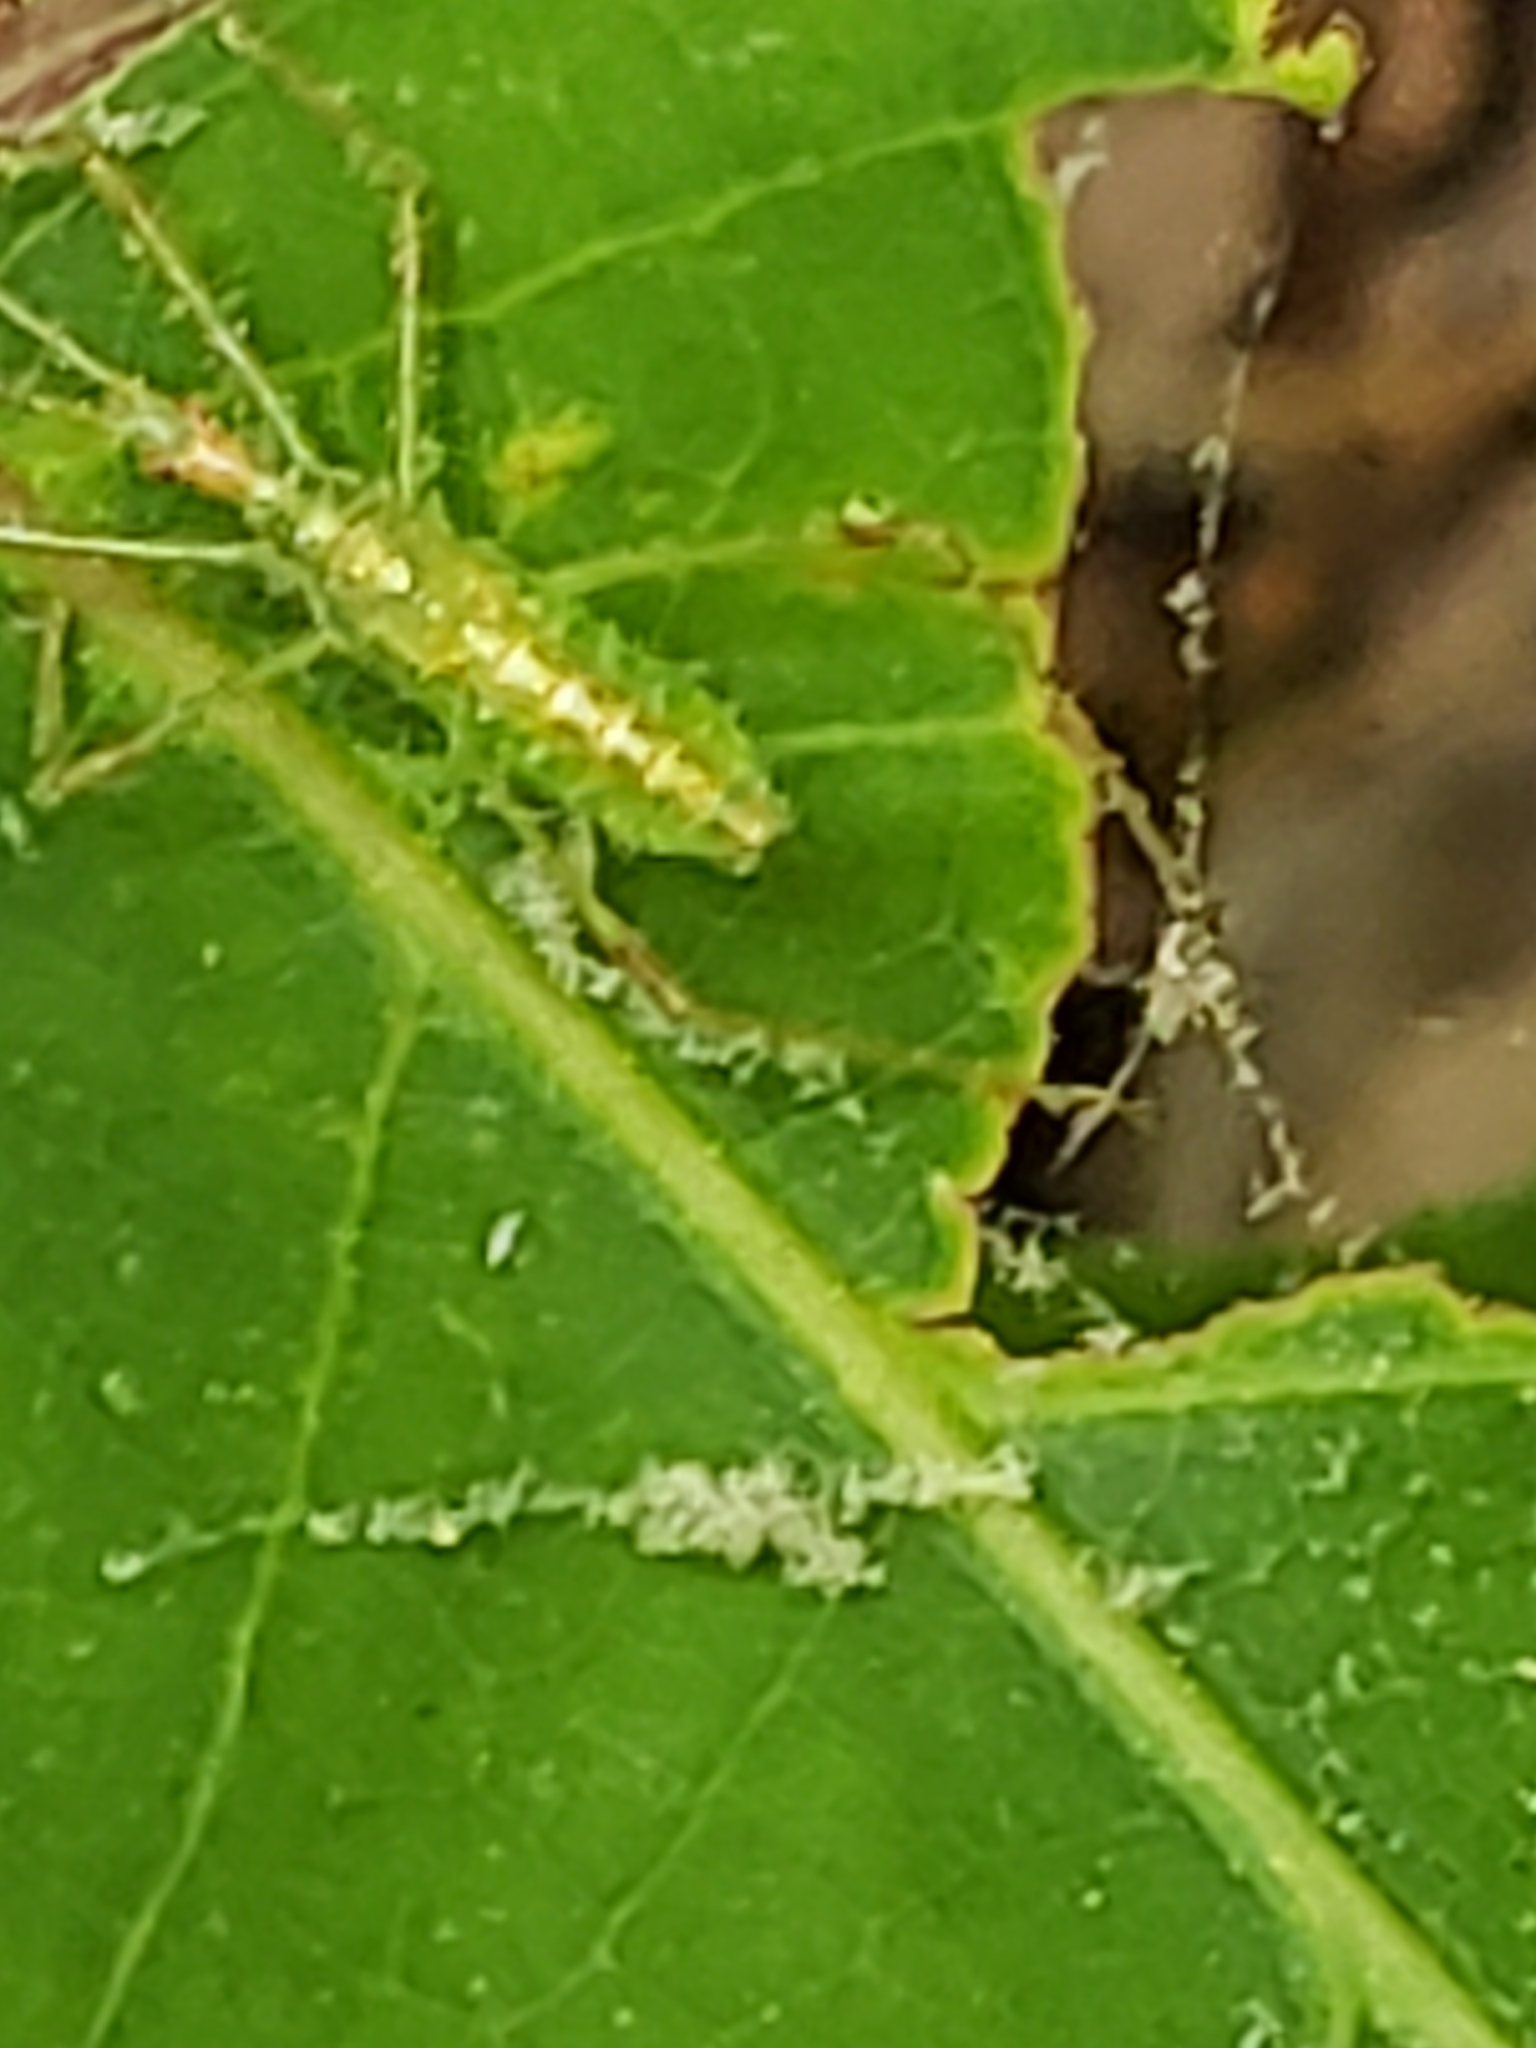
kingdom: Animalia
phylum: Arthropoda
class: Insecta
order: Hemiptera
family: Reduviidae
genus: Zelus
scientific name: Zelus luridus
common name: Pale green assassin bug
